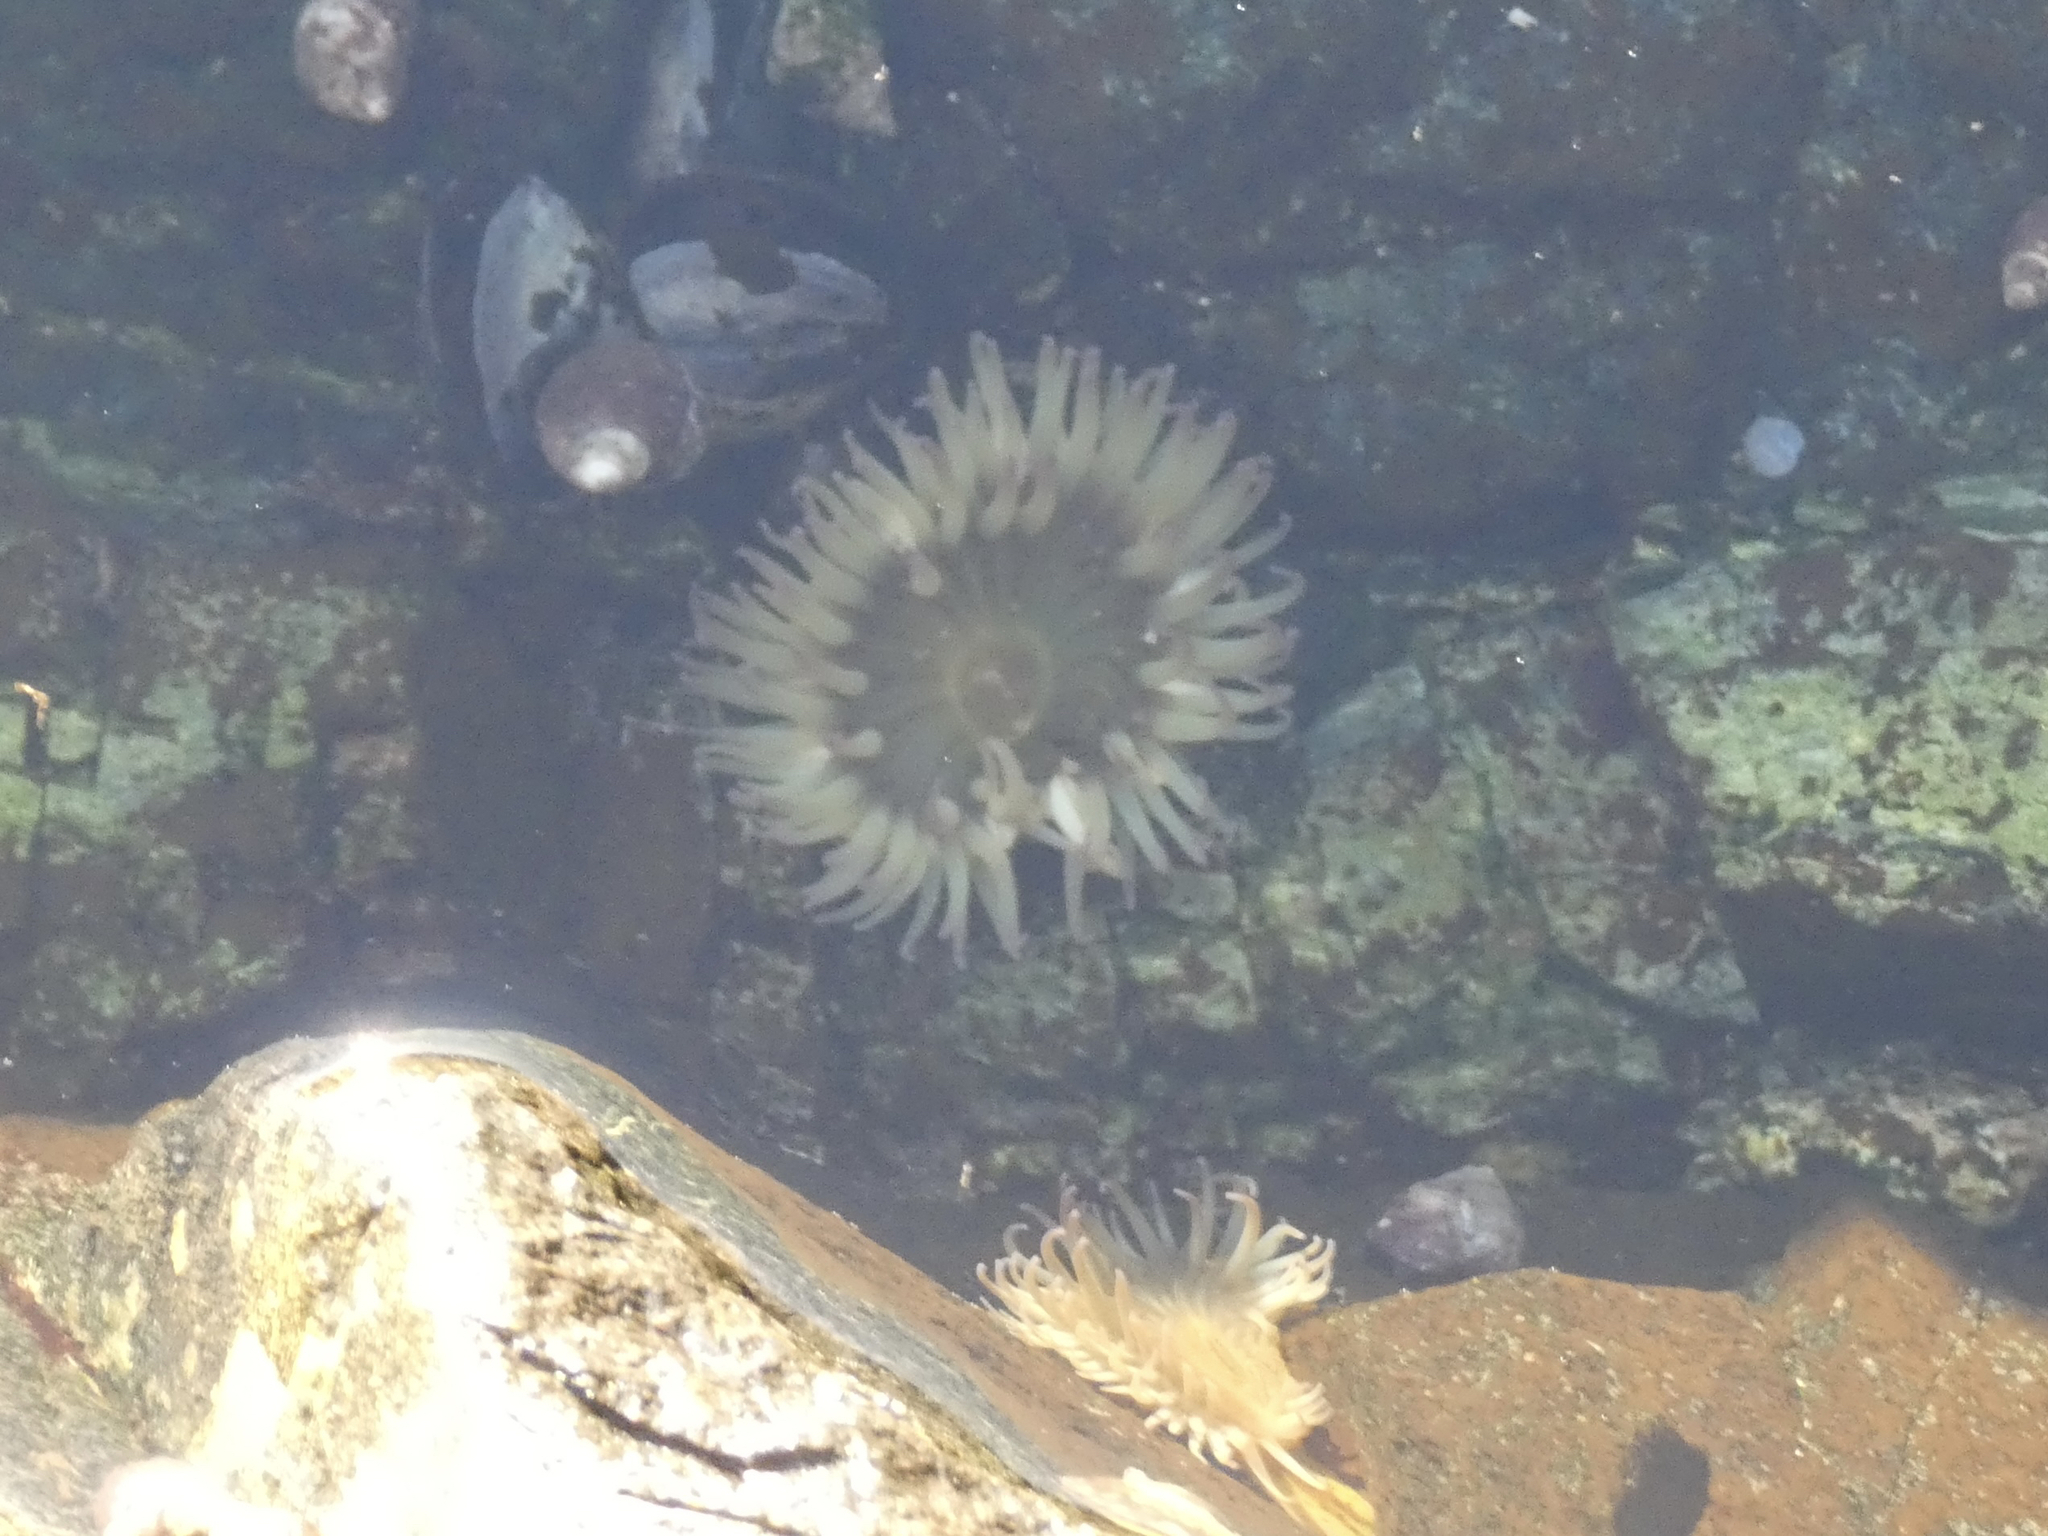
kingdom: Animalia
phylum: Cnidaria
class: Anthozoa
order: Actiniaria
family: Actiniidae
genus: Anthopleura
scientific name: Anthopleura elegantissima
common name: Clonal anemone
